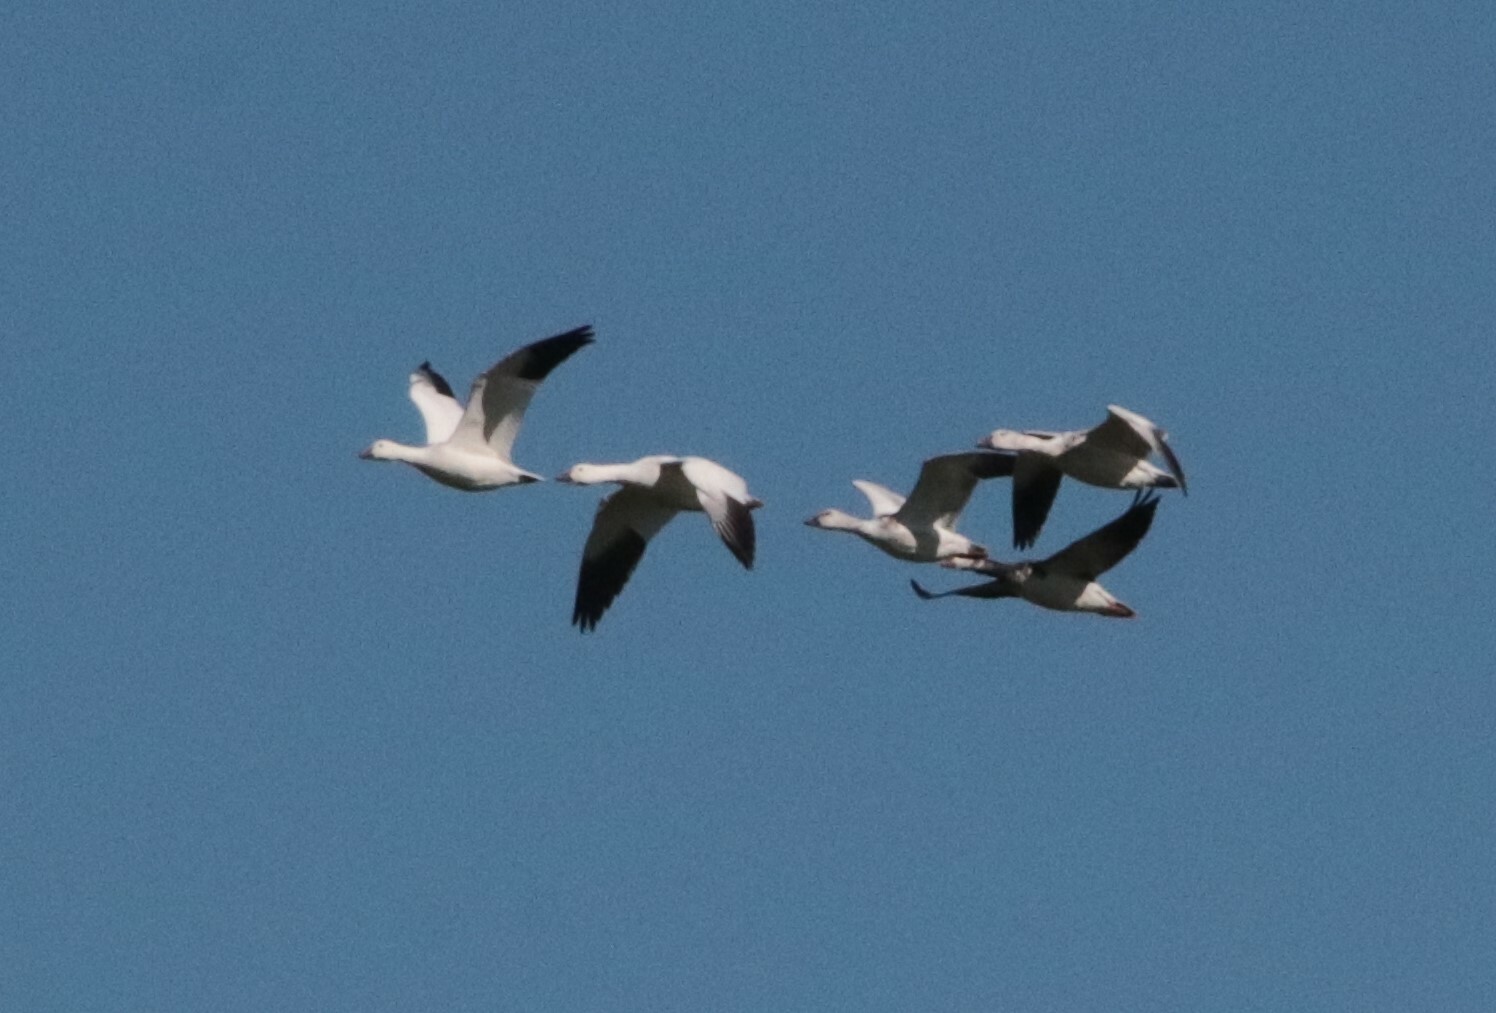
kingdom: Animalia
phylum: Chordata
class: Aves
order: Anseriformes
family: Anatidae
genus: Anser
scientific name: Anser caerulescens
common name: Snow goose
